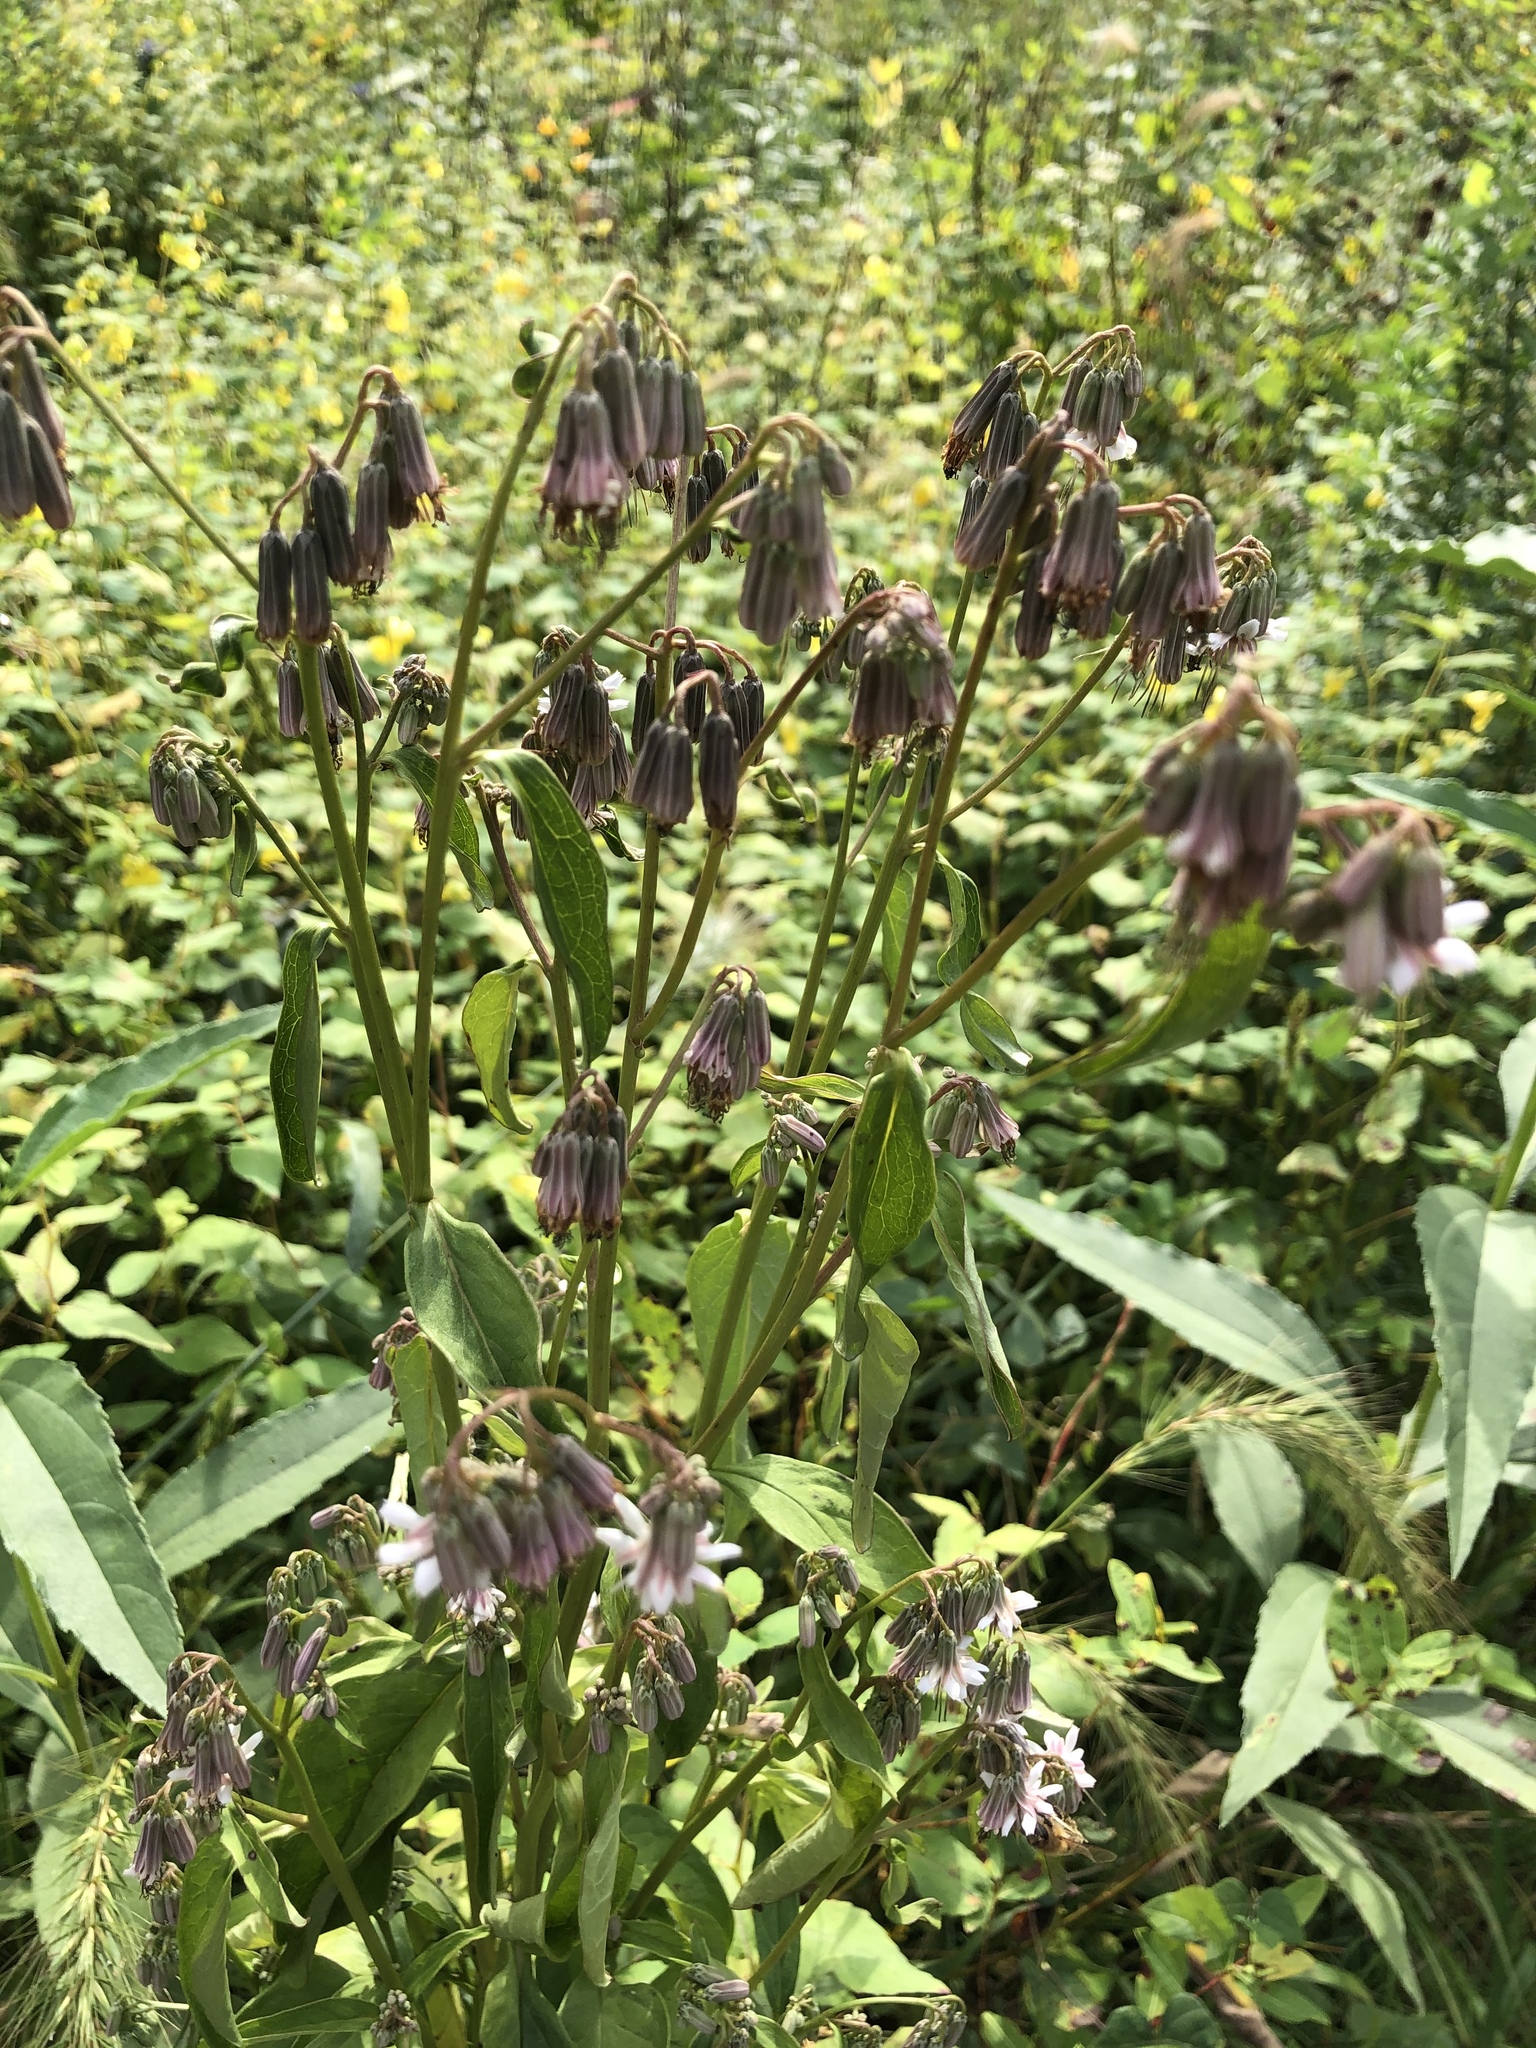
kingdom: Plantae
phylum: Tracheophyta
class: Magnoliopsida
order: Asterales
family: Asteraceae
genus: Nabalus
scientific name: Nabalus albus
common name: White rattlesnakeroot
